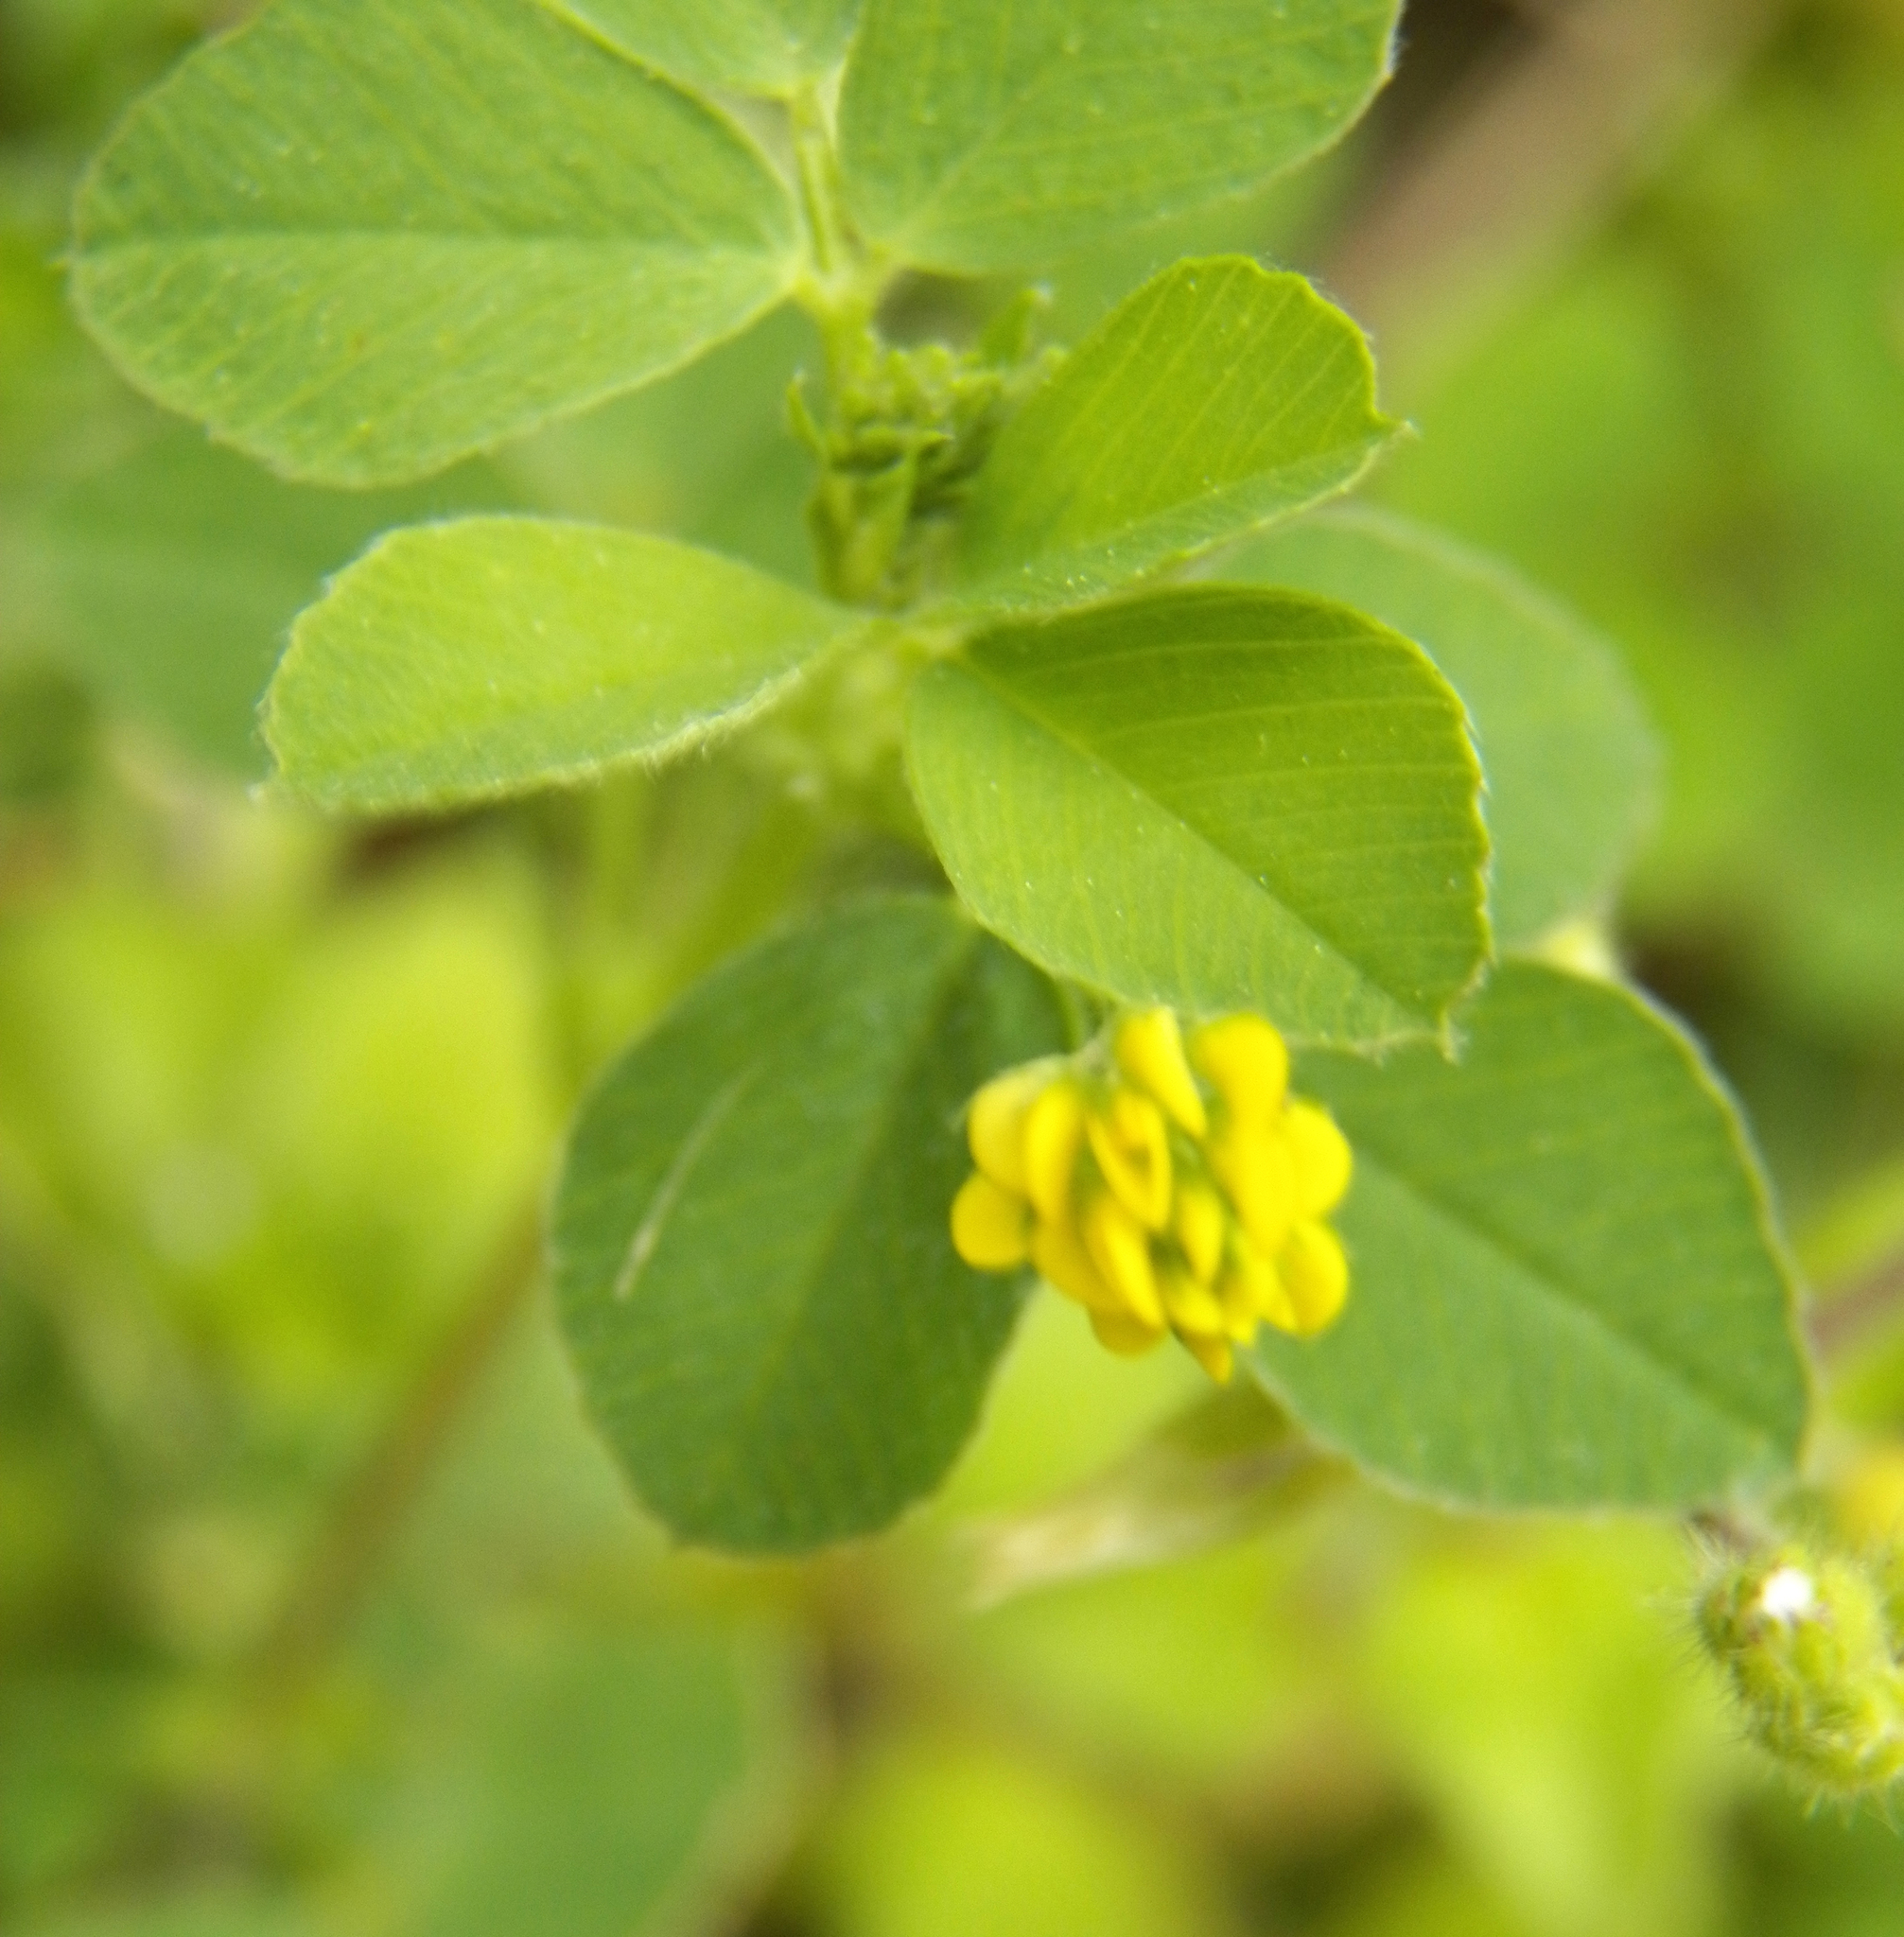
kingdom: Plantae
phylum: Tracheophyta
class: Magnoliopsida
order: Fabales
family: Fabaceae
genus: Medicago
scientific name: Medicago lupulina
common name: Black medick
